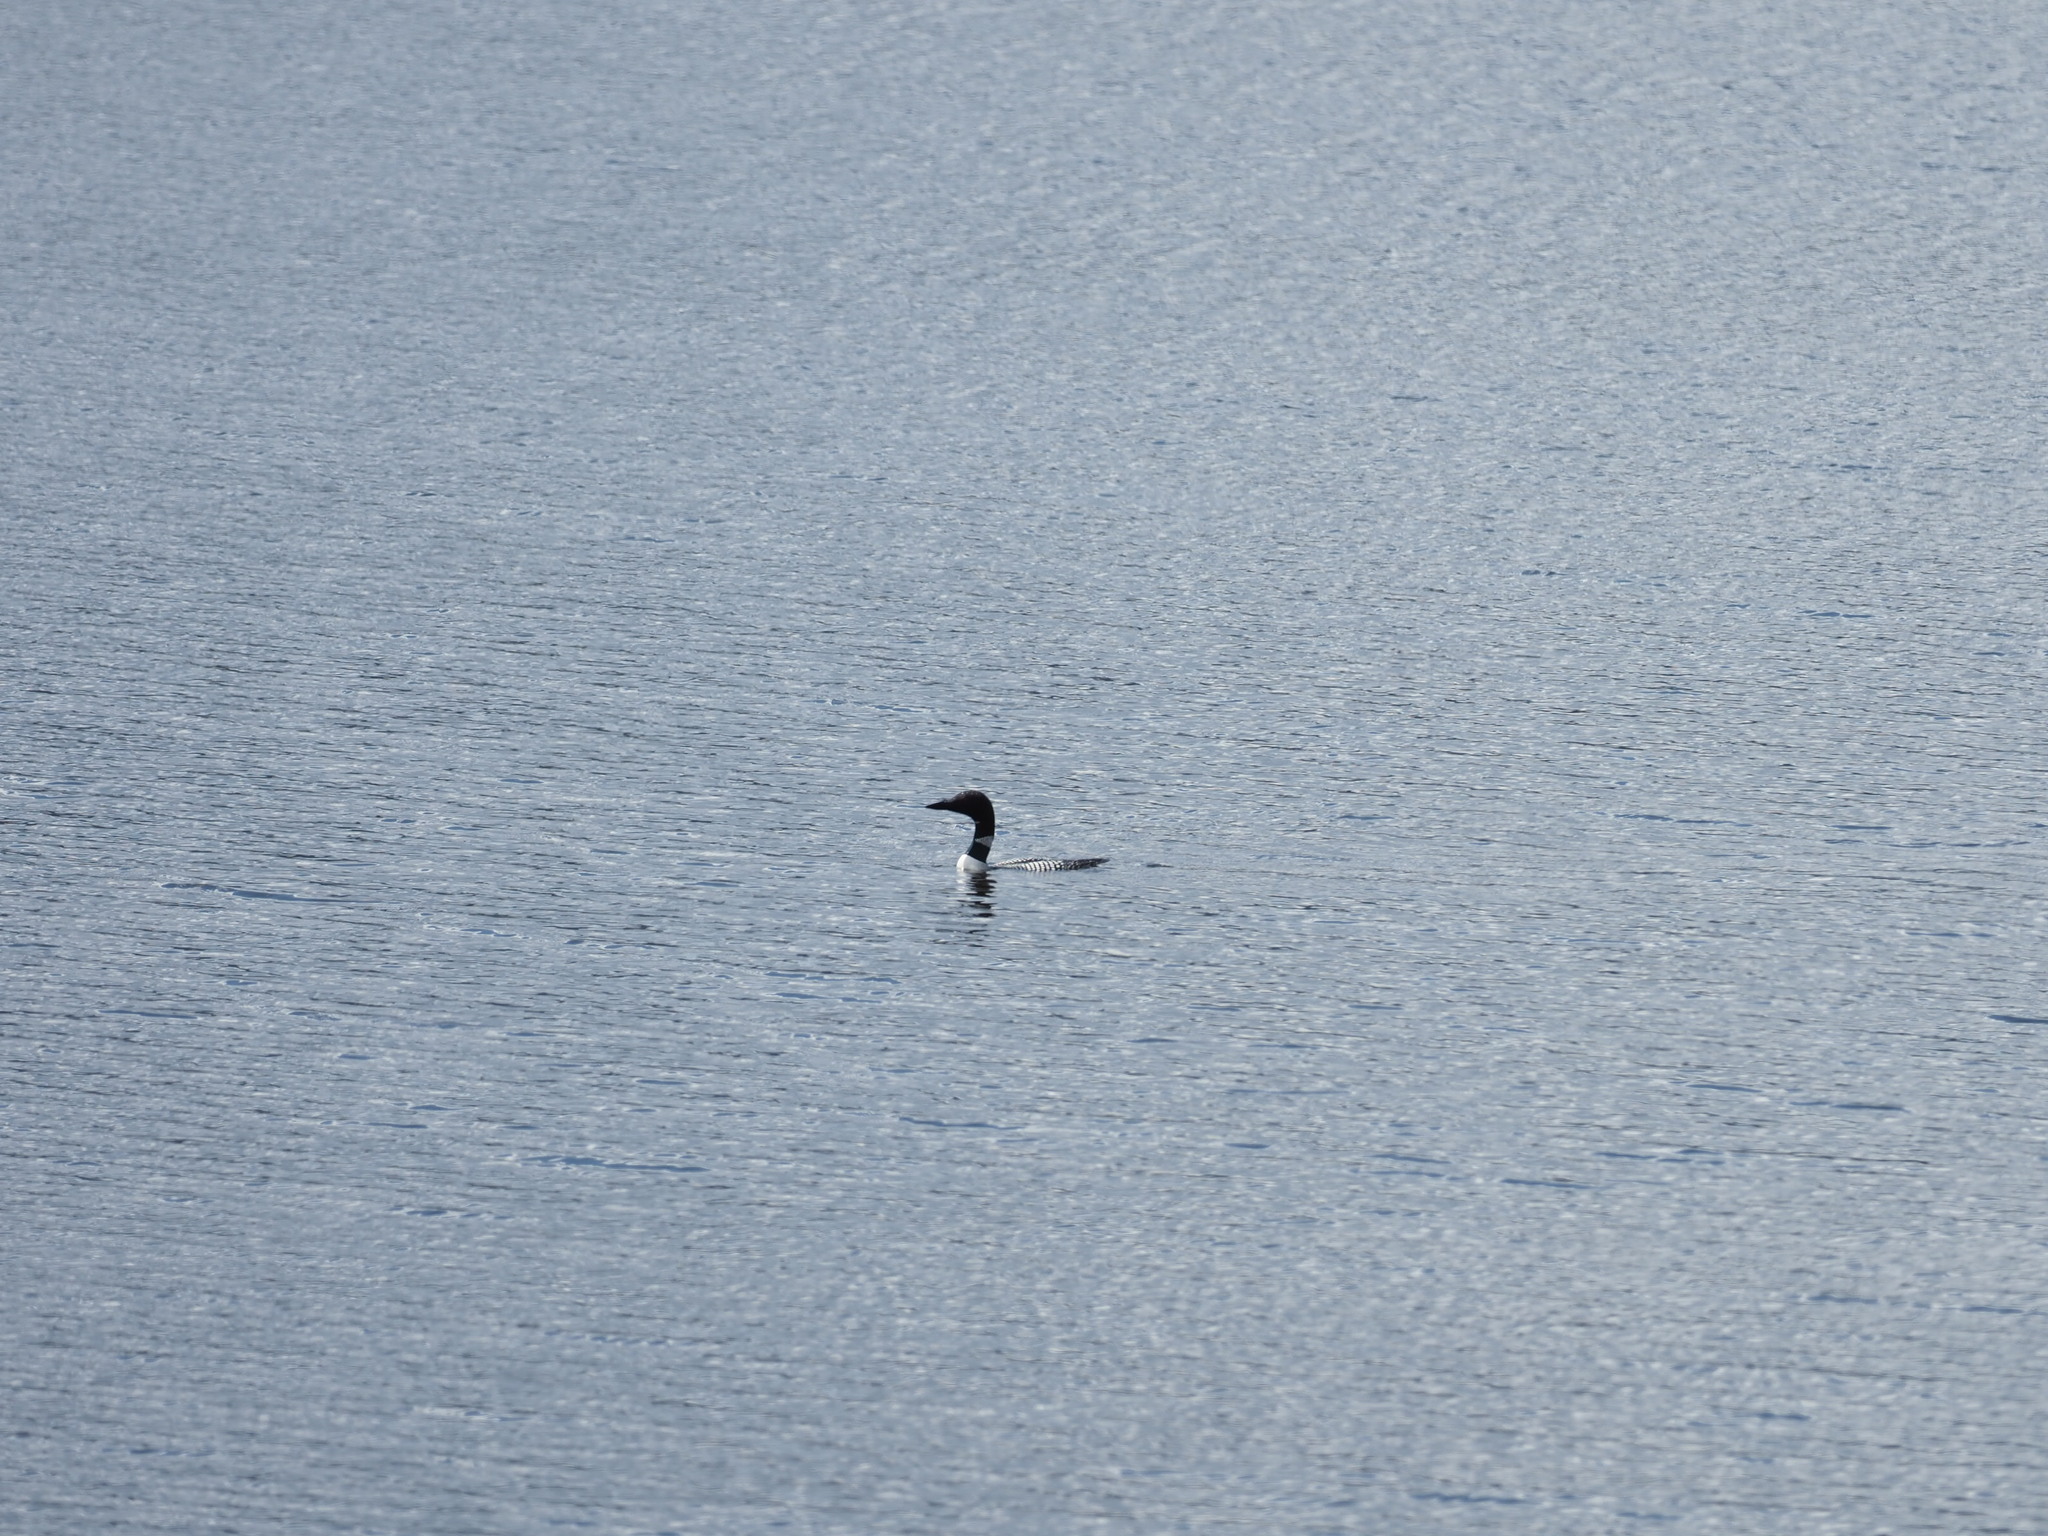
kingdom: Animalia
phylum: Chordata
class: Aves
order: Gaviiformes
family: Gaviidae
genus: Gavia
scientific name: Gavia immer
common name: Common loon
